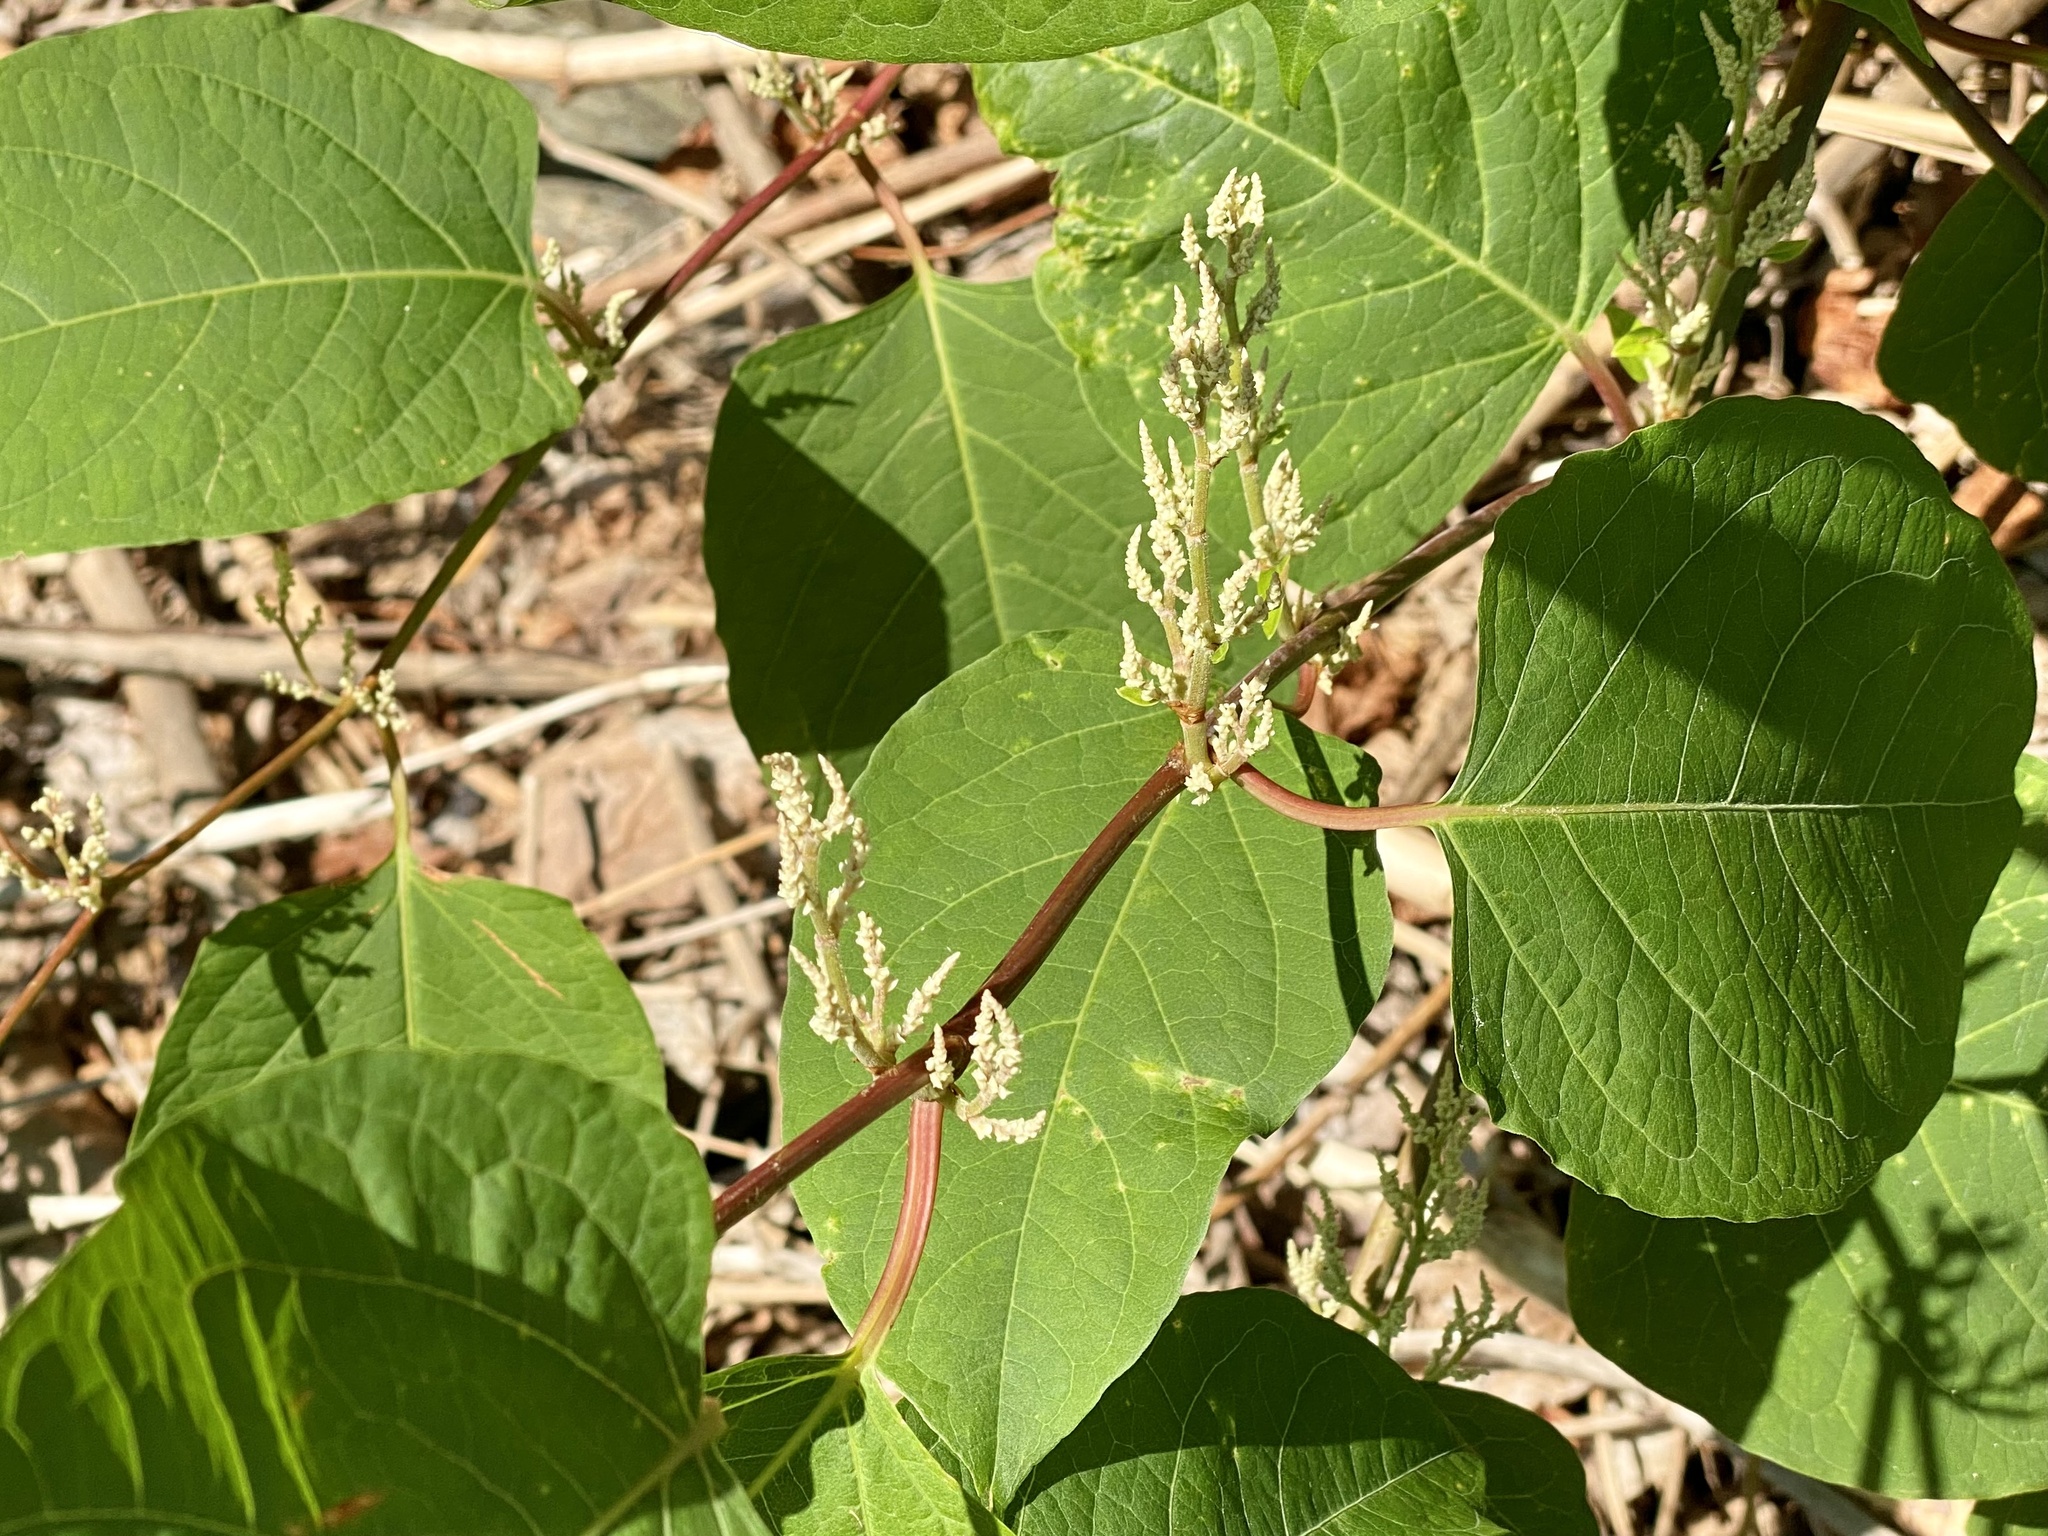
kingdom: Plantae
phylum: Tracheophyta
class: Magnoliopsida
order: Caryophyllales
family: Polygonaceae
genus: Reynoutria
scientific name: Reynoutria japonica
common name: Japanese knotweed
